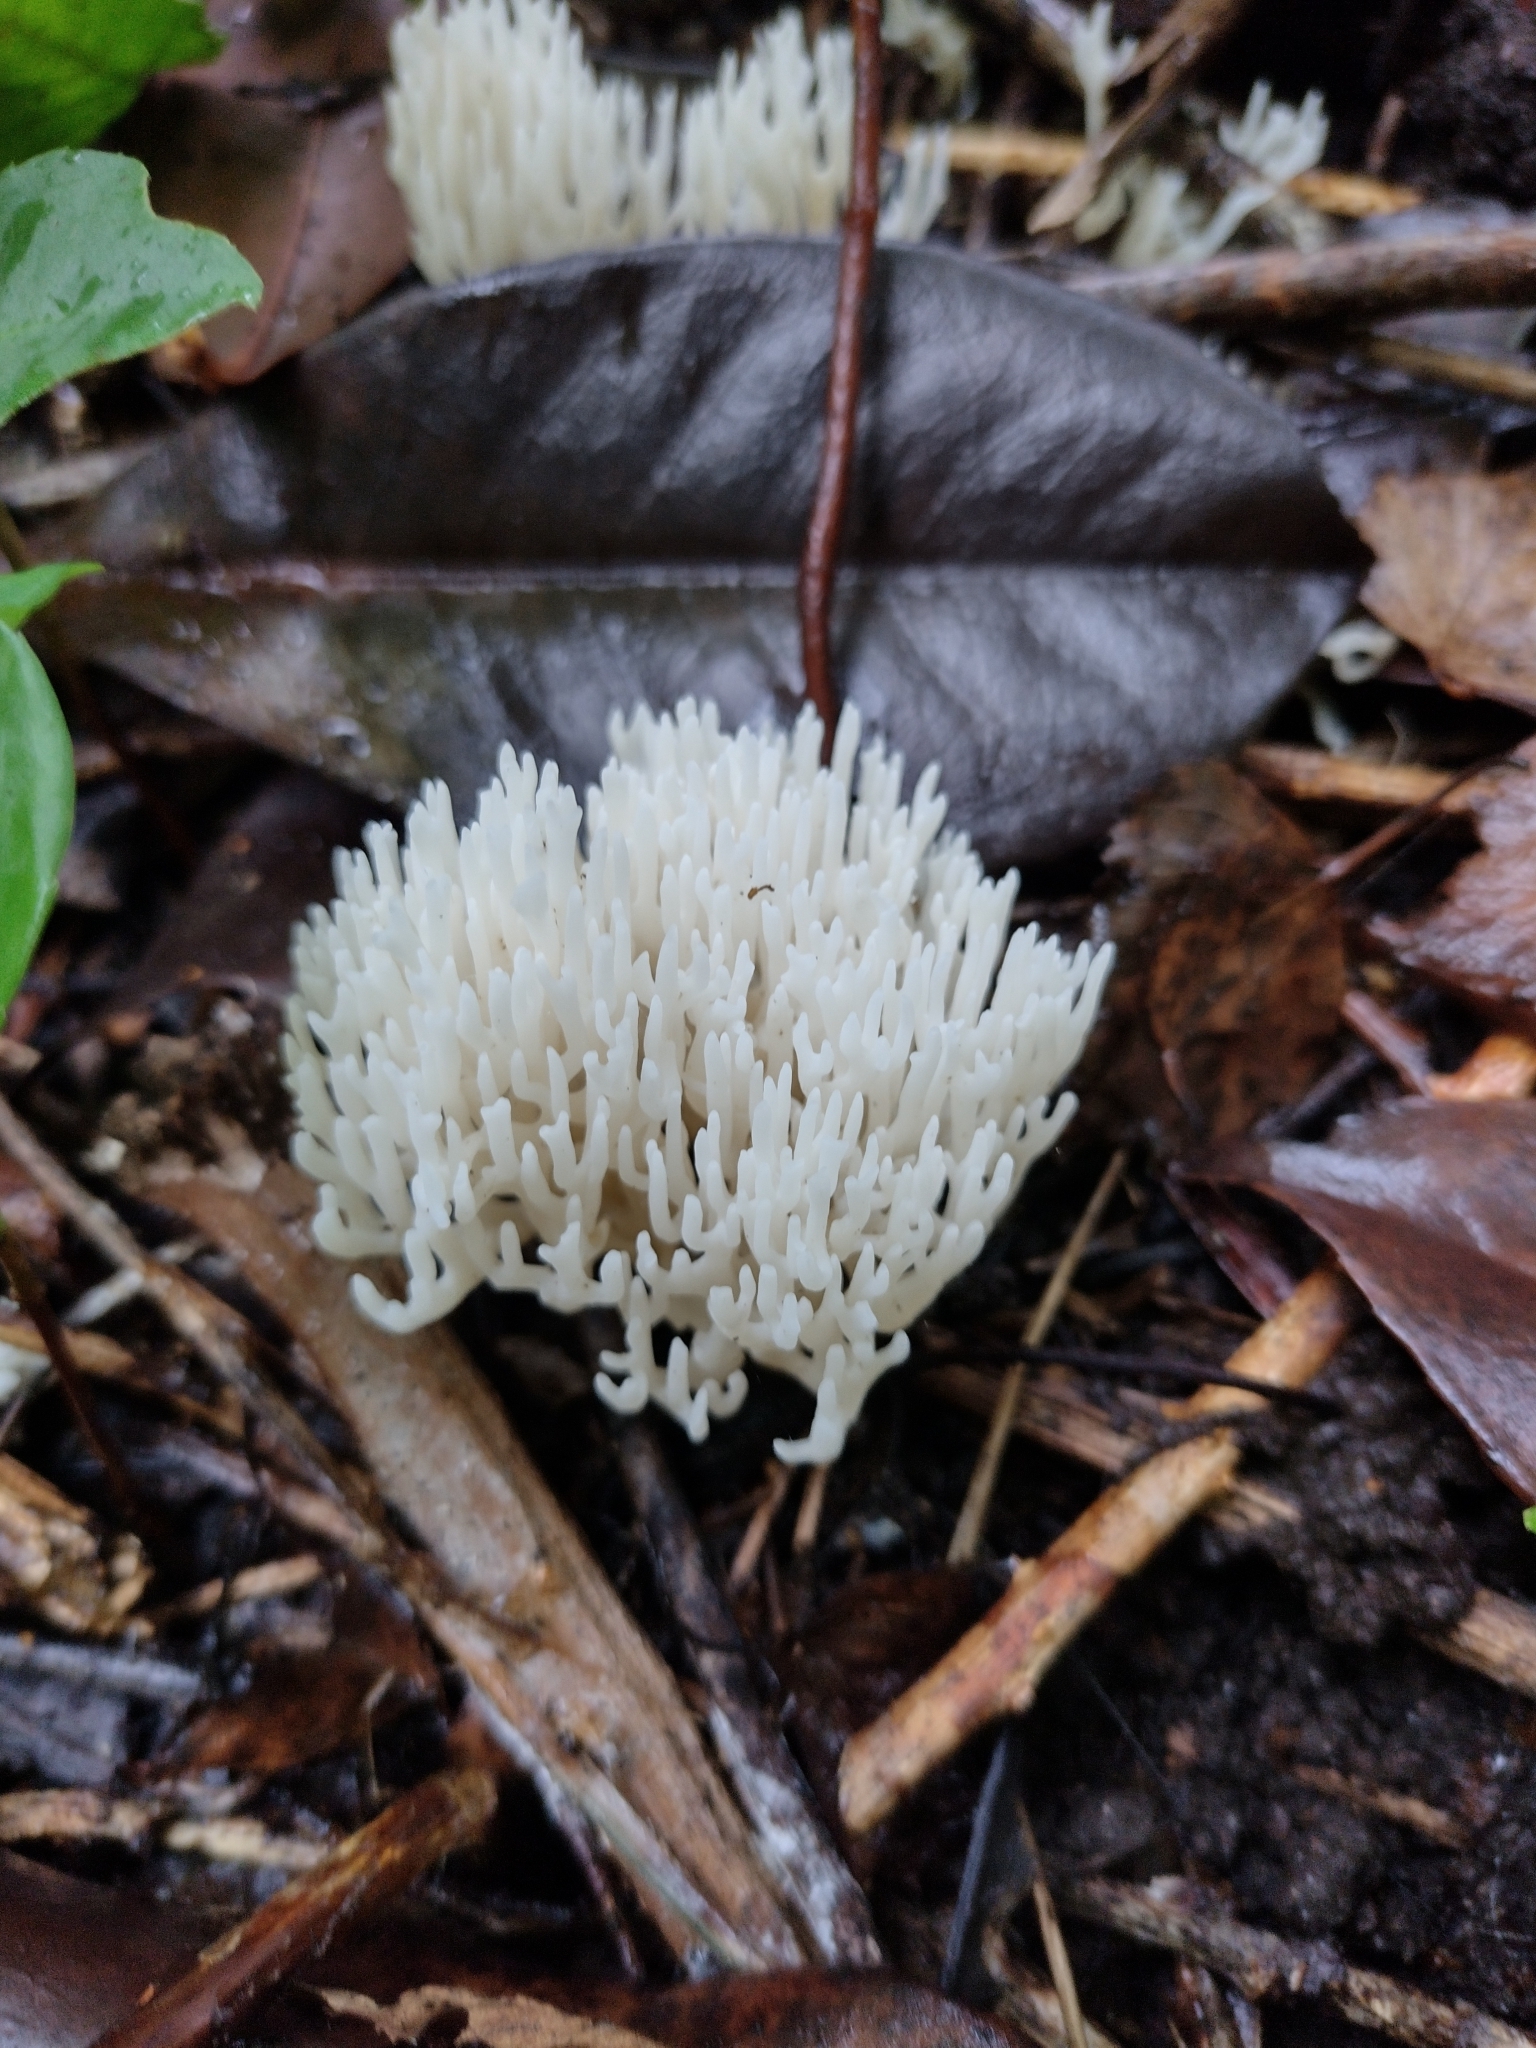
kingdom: Fungi
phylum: Basidiomycota
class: Agaricomycetes
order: Agaricales
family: Clavariaceae
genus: Ramariopsis
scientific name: Ramariopsis kunzei
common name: Ivory coral
